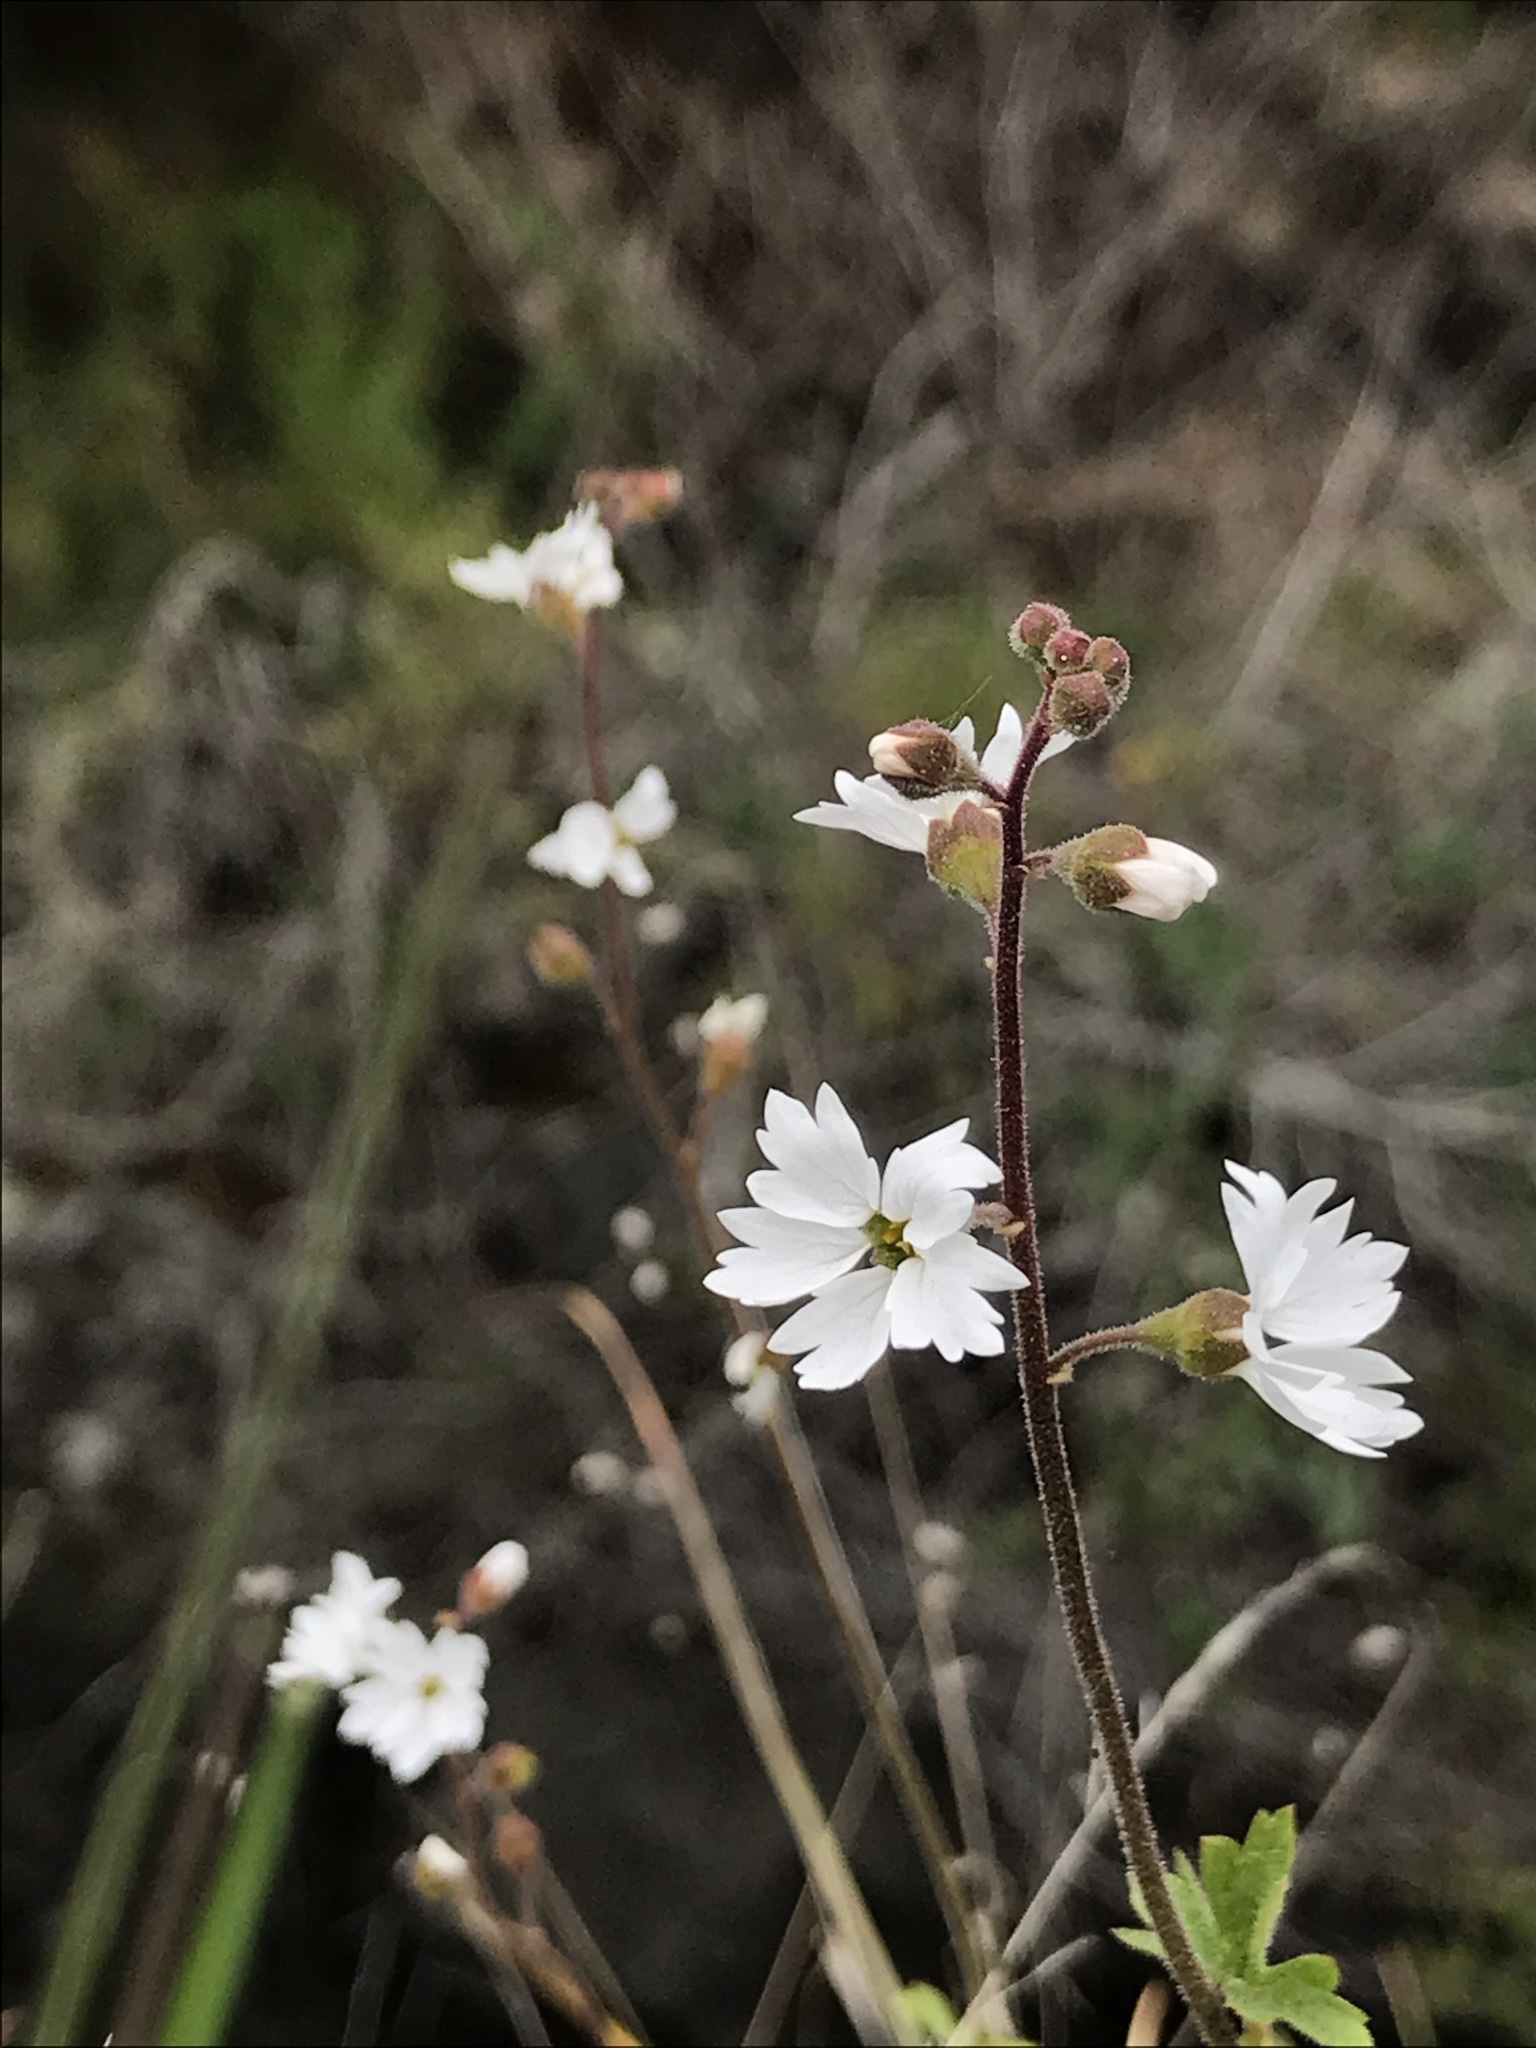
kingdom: Plantae
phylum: Tracheophyta
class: Magnoliopsida
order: Saxifragales
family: Saxifragaceae
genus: Lithophragma
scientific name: Lithophragma affine
